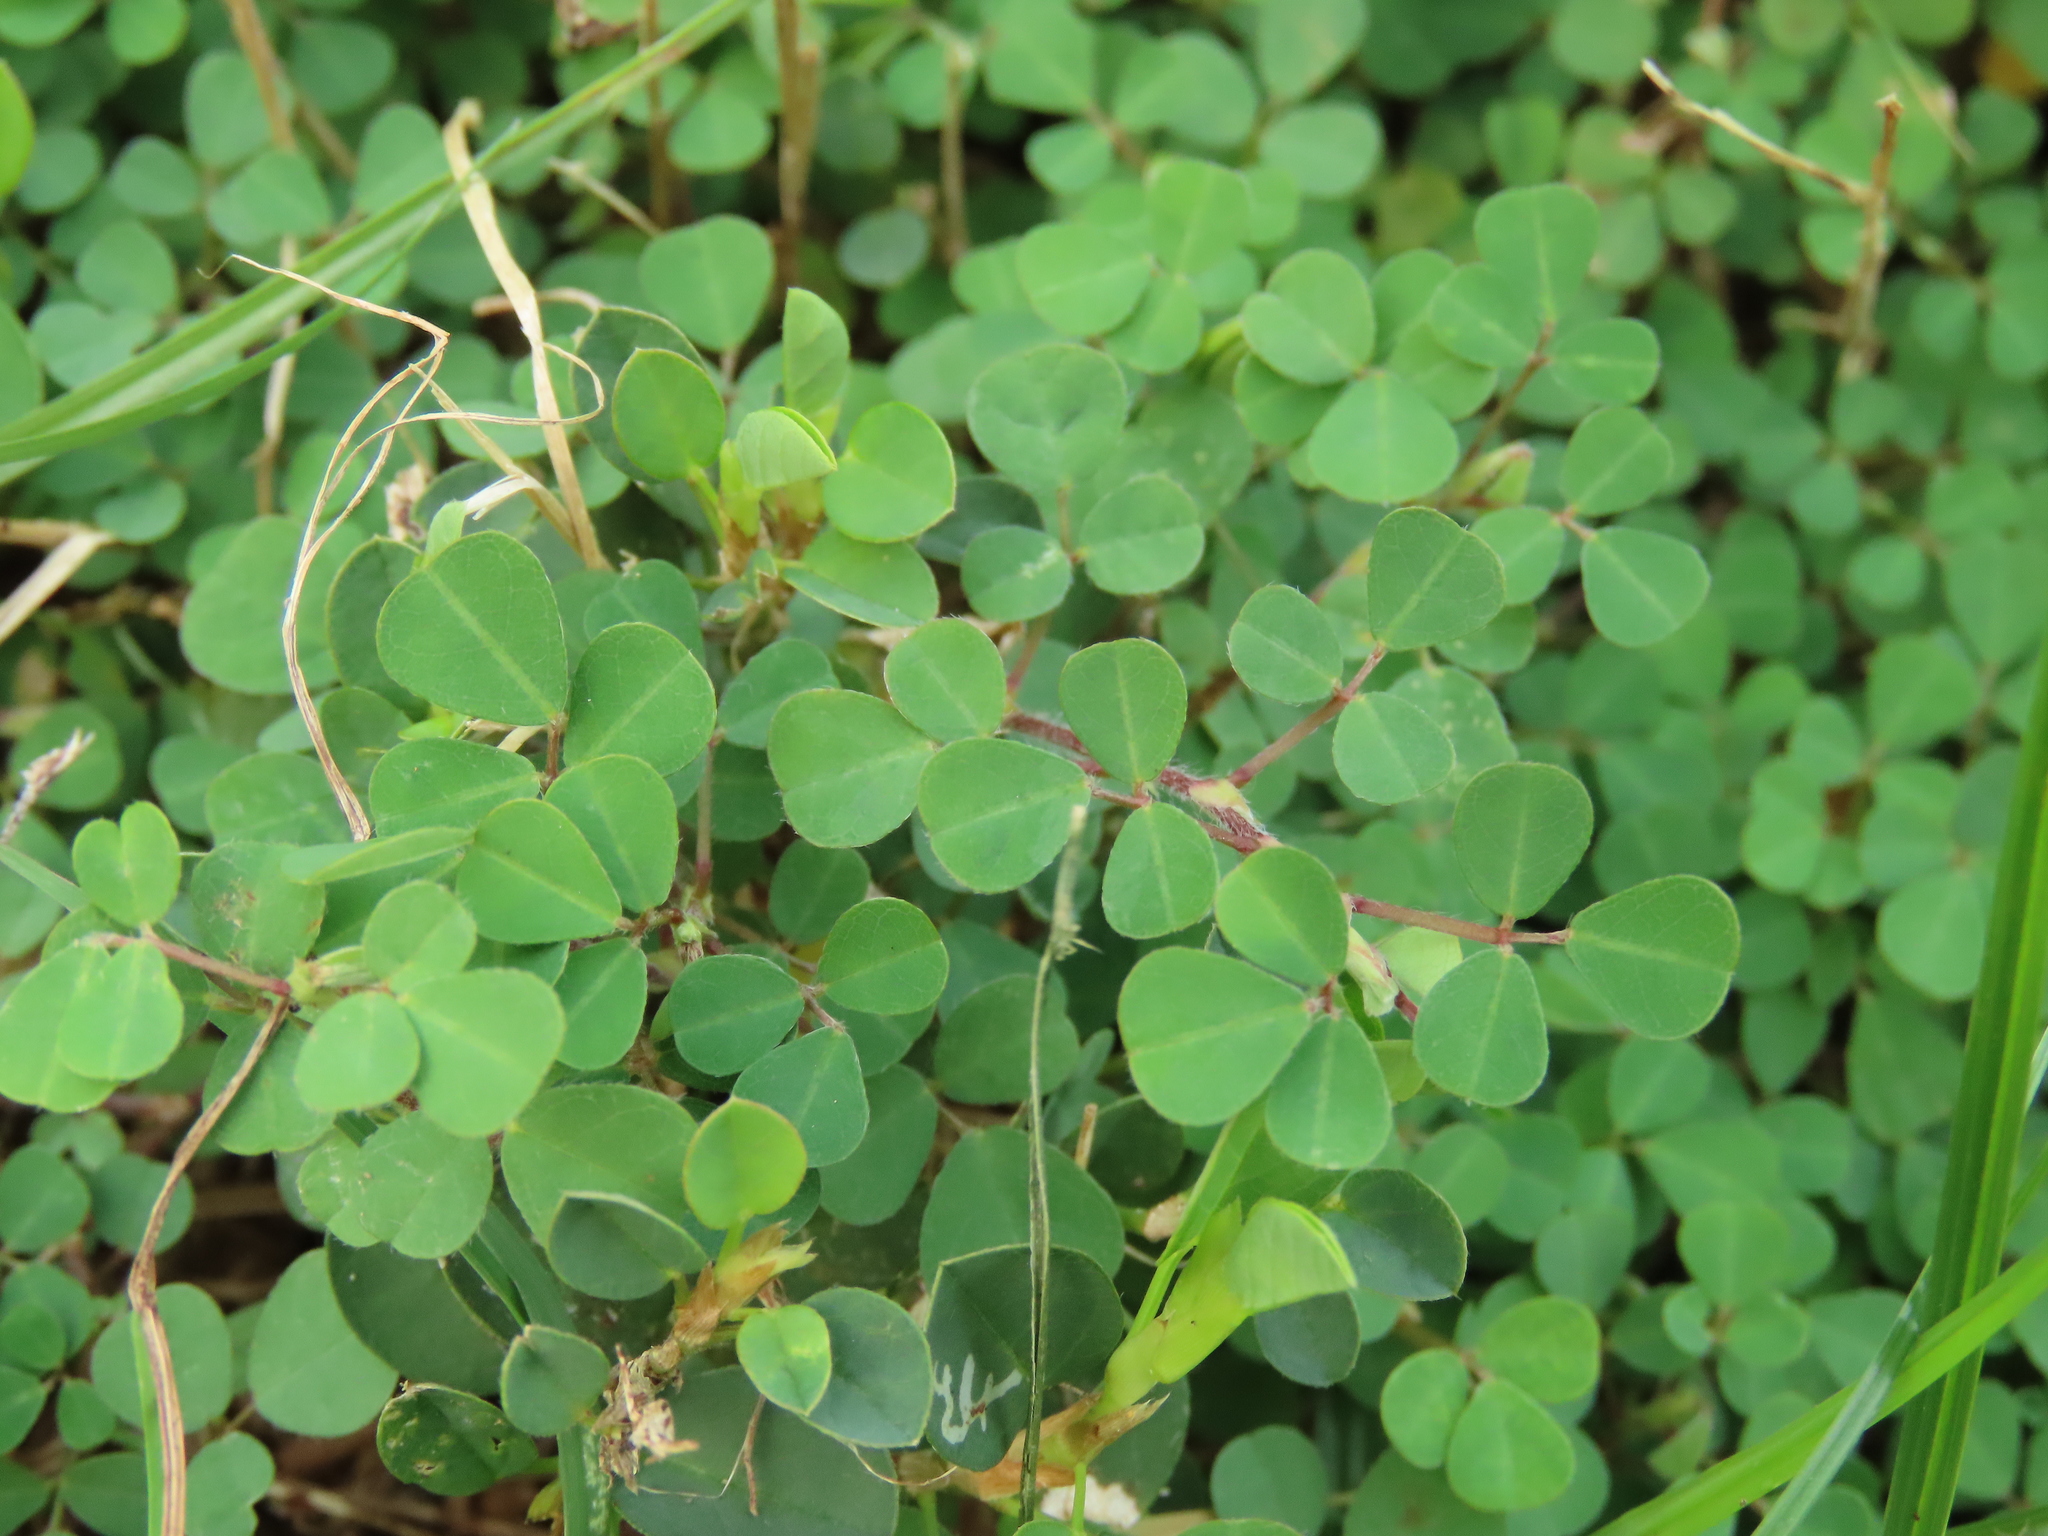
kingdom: Plantae
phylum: Tracheophyta
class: Magnoliopsida
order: Fabales
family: Fabaceae
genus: Grona
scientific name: Grona triflora
